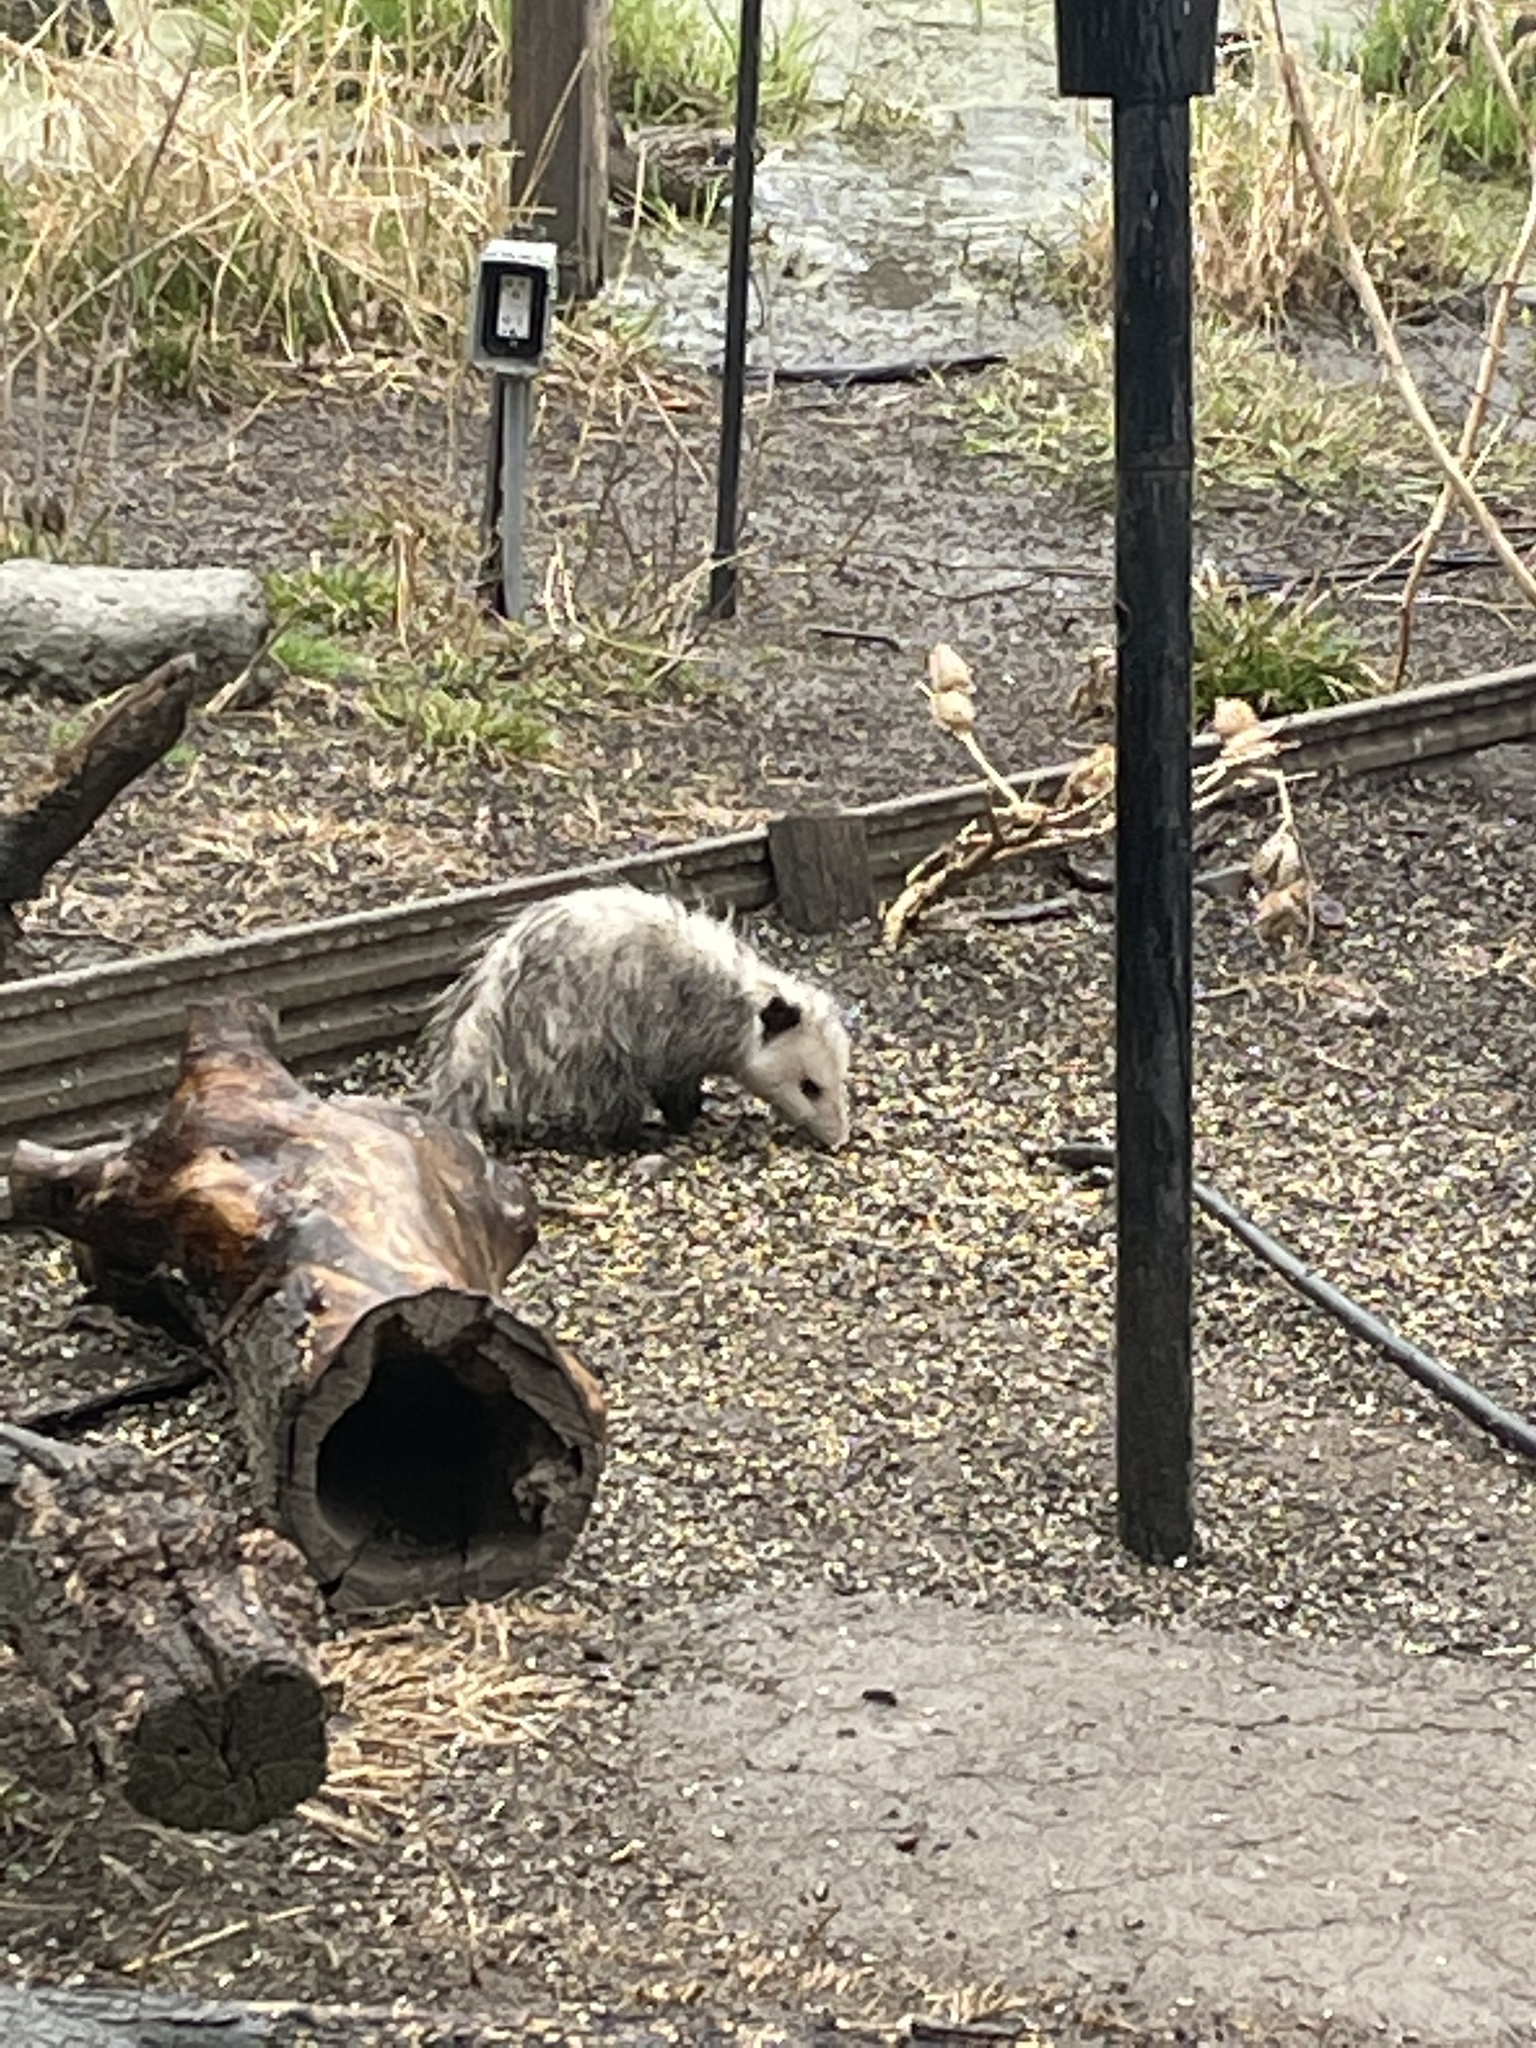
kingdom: Animalia
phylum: Chordata
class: Mammalia
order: Didelphimorphia
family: Didelphidae
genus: Didelphis
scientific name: Didelphis virginiana
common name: Virginia opossum
